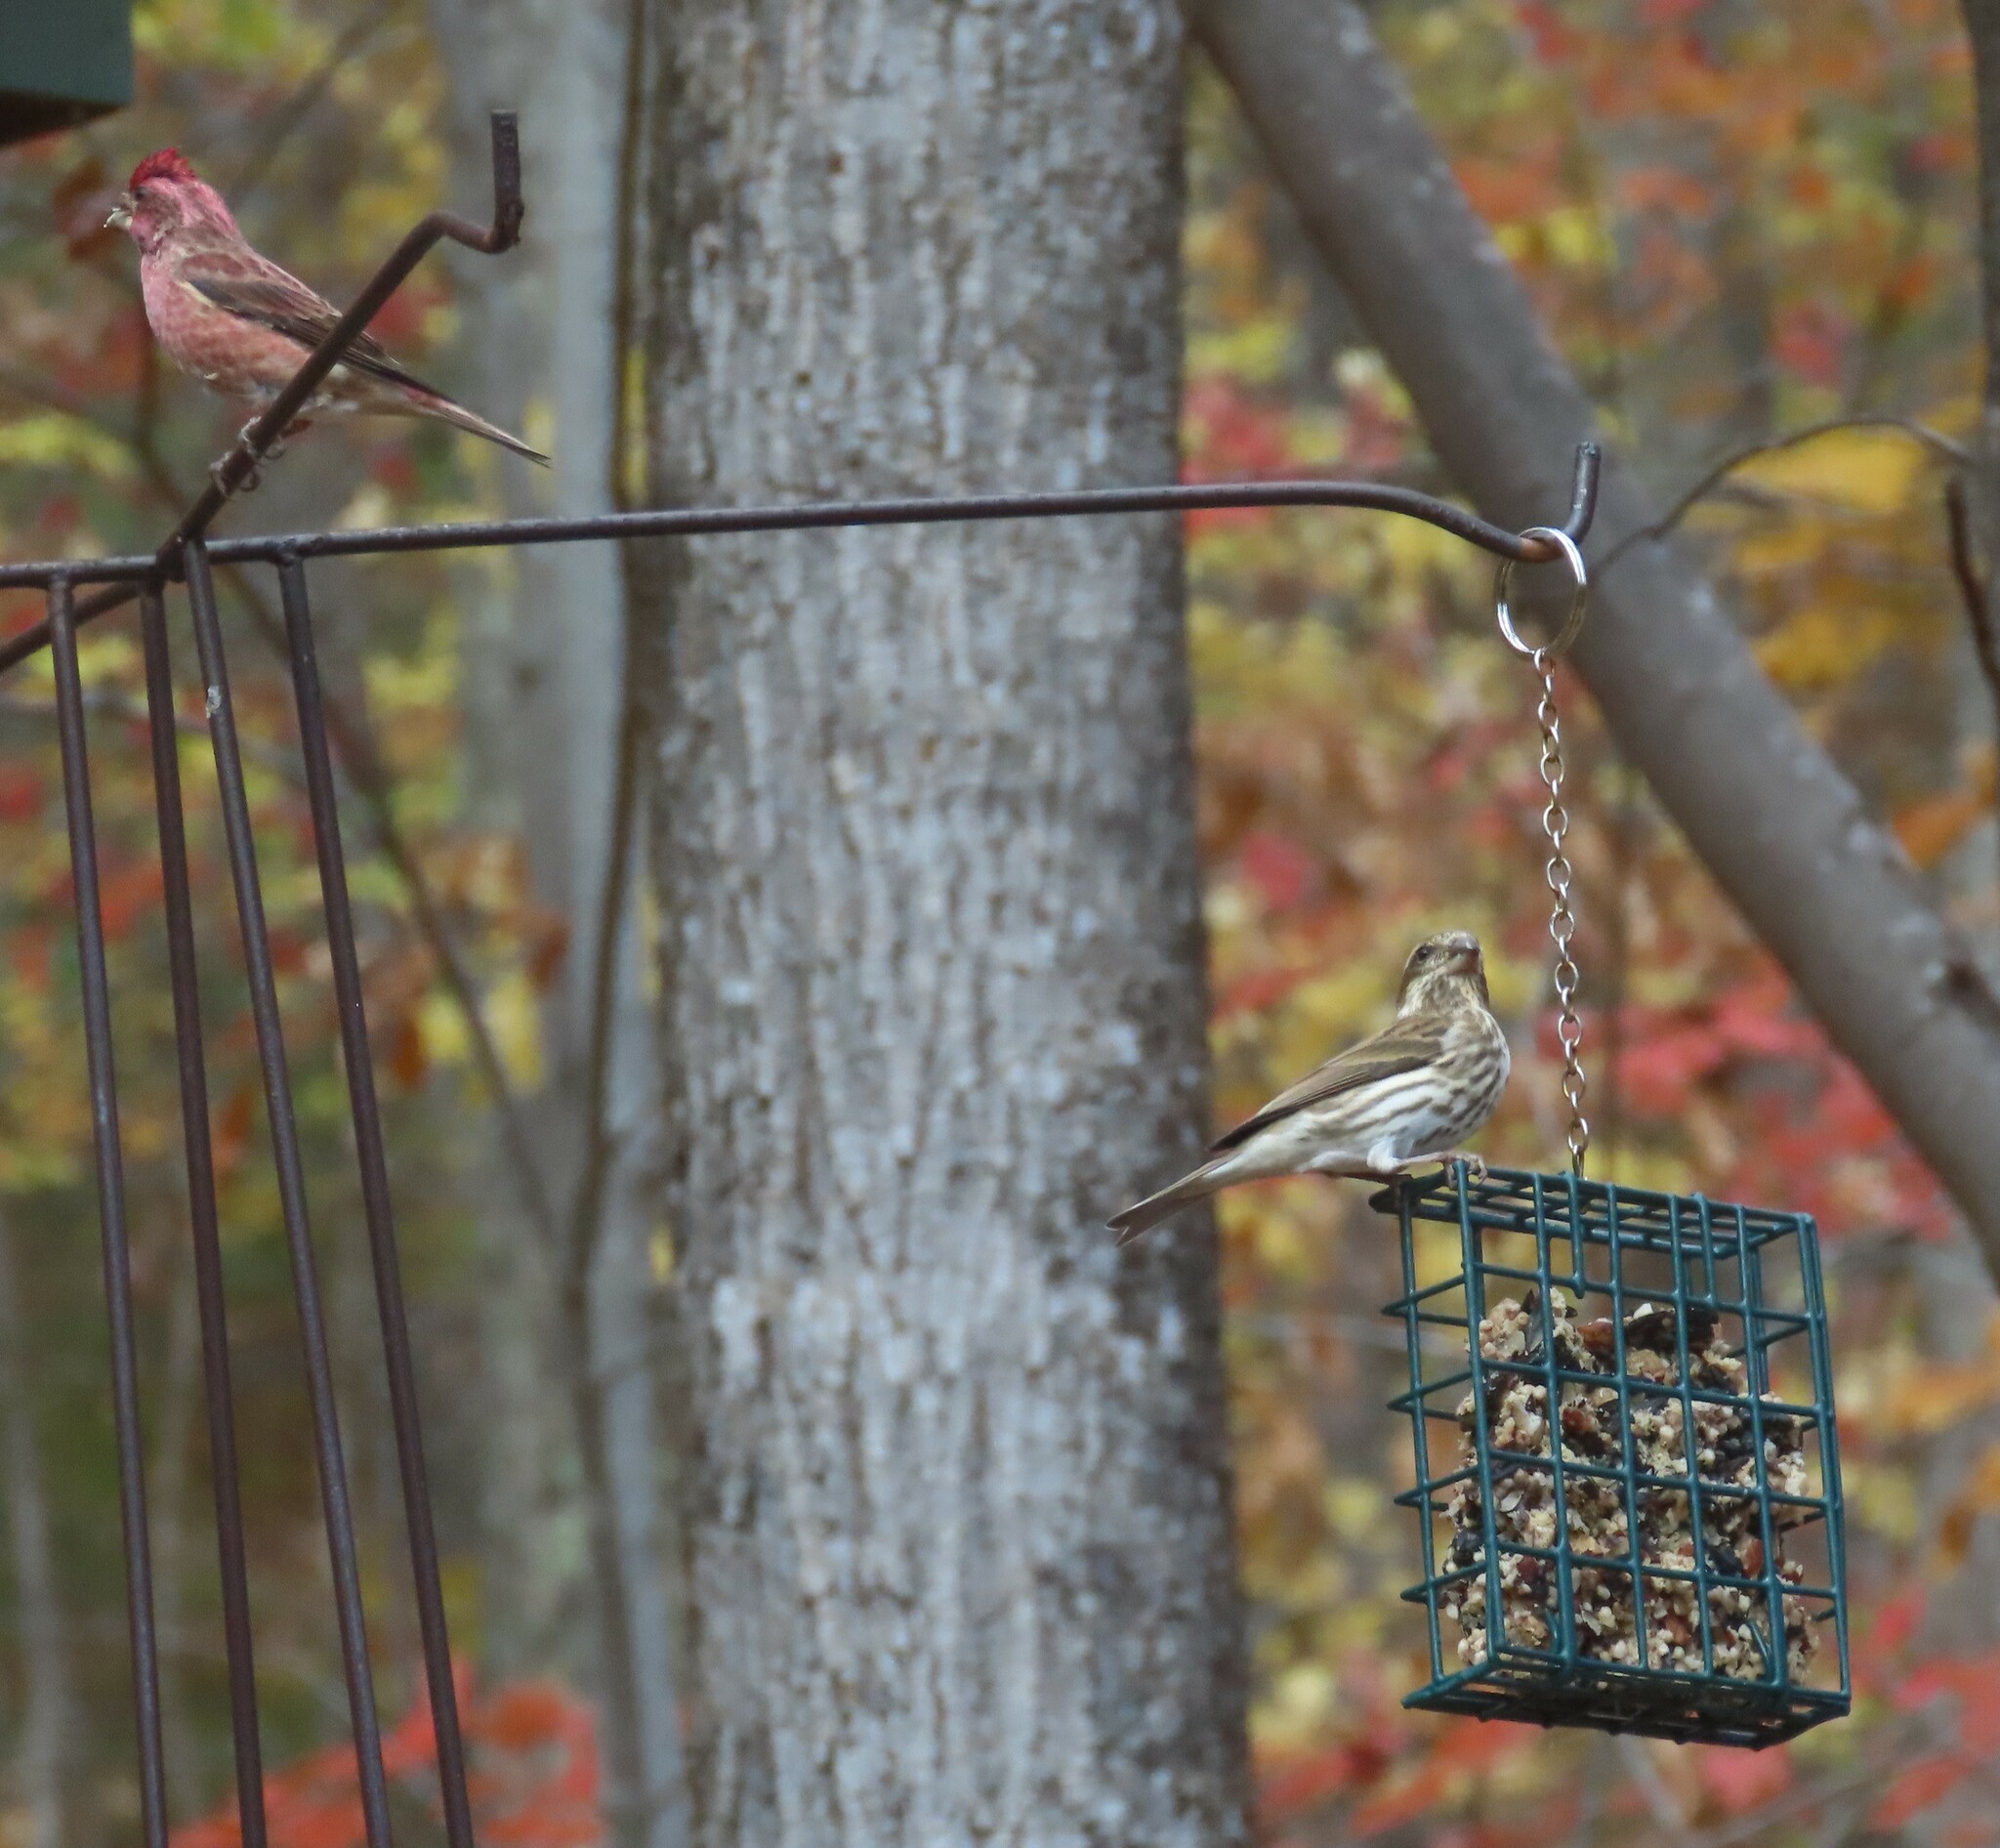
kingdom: Animalia
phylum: Chordata
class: Aves
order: Passeriformes
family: Fringillidae
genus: Haemorhous
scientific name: Haemorhous purpureus
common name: Purple finch
